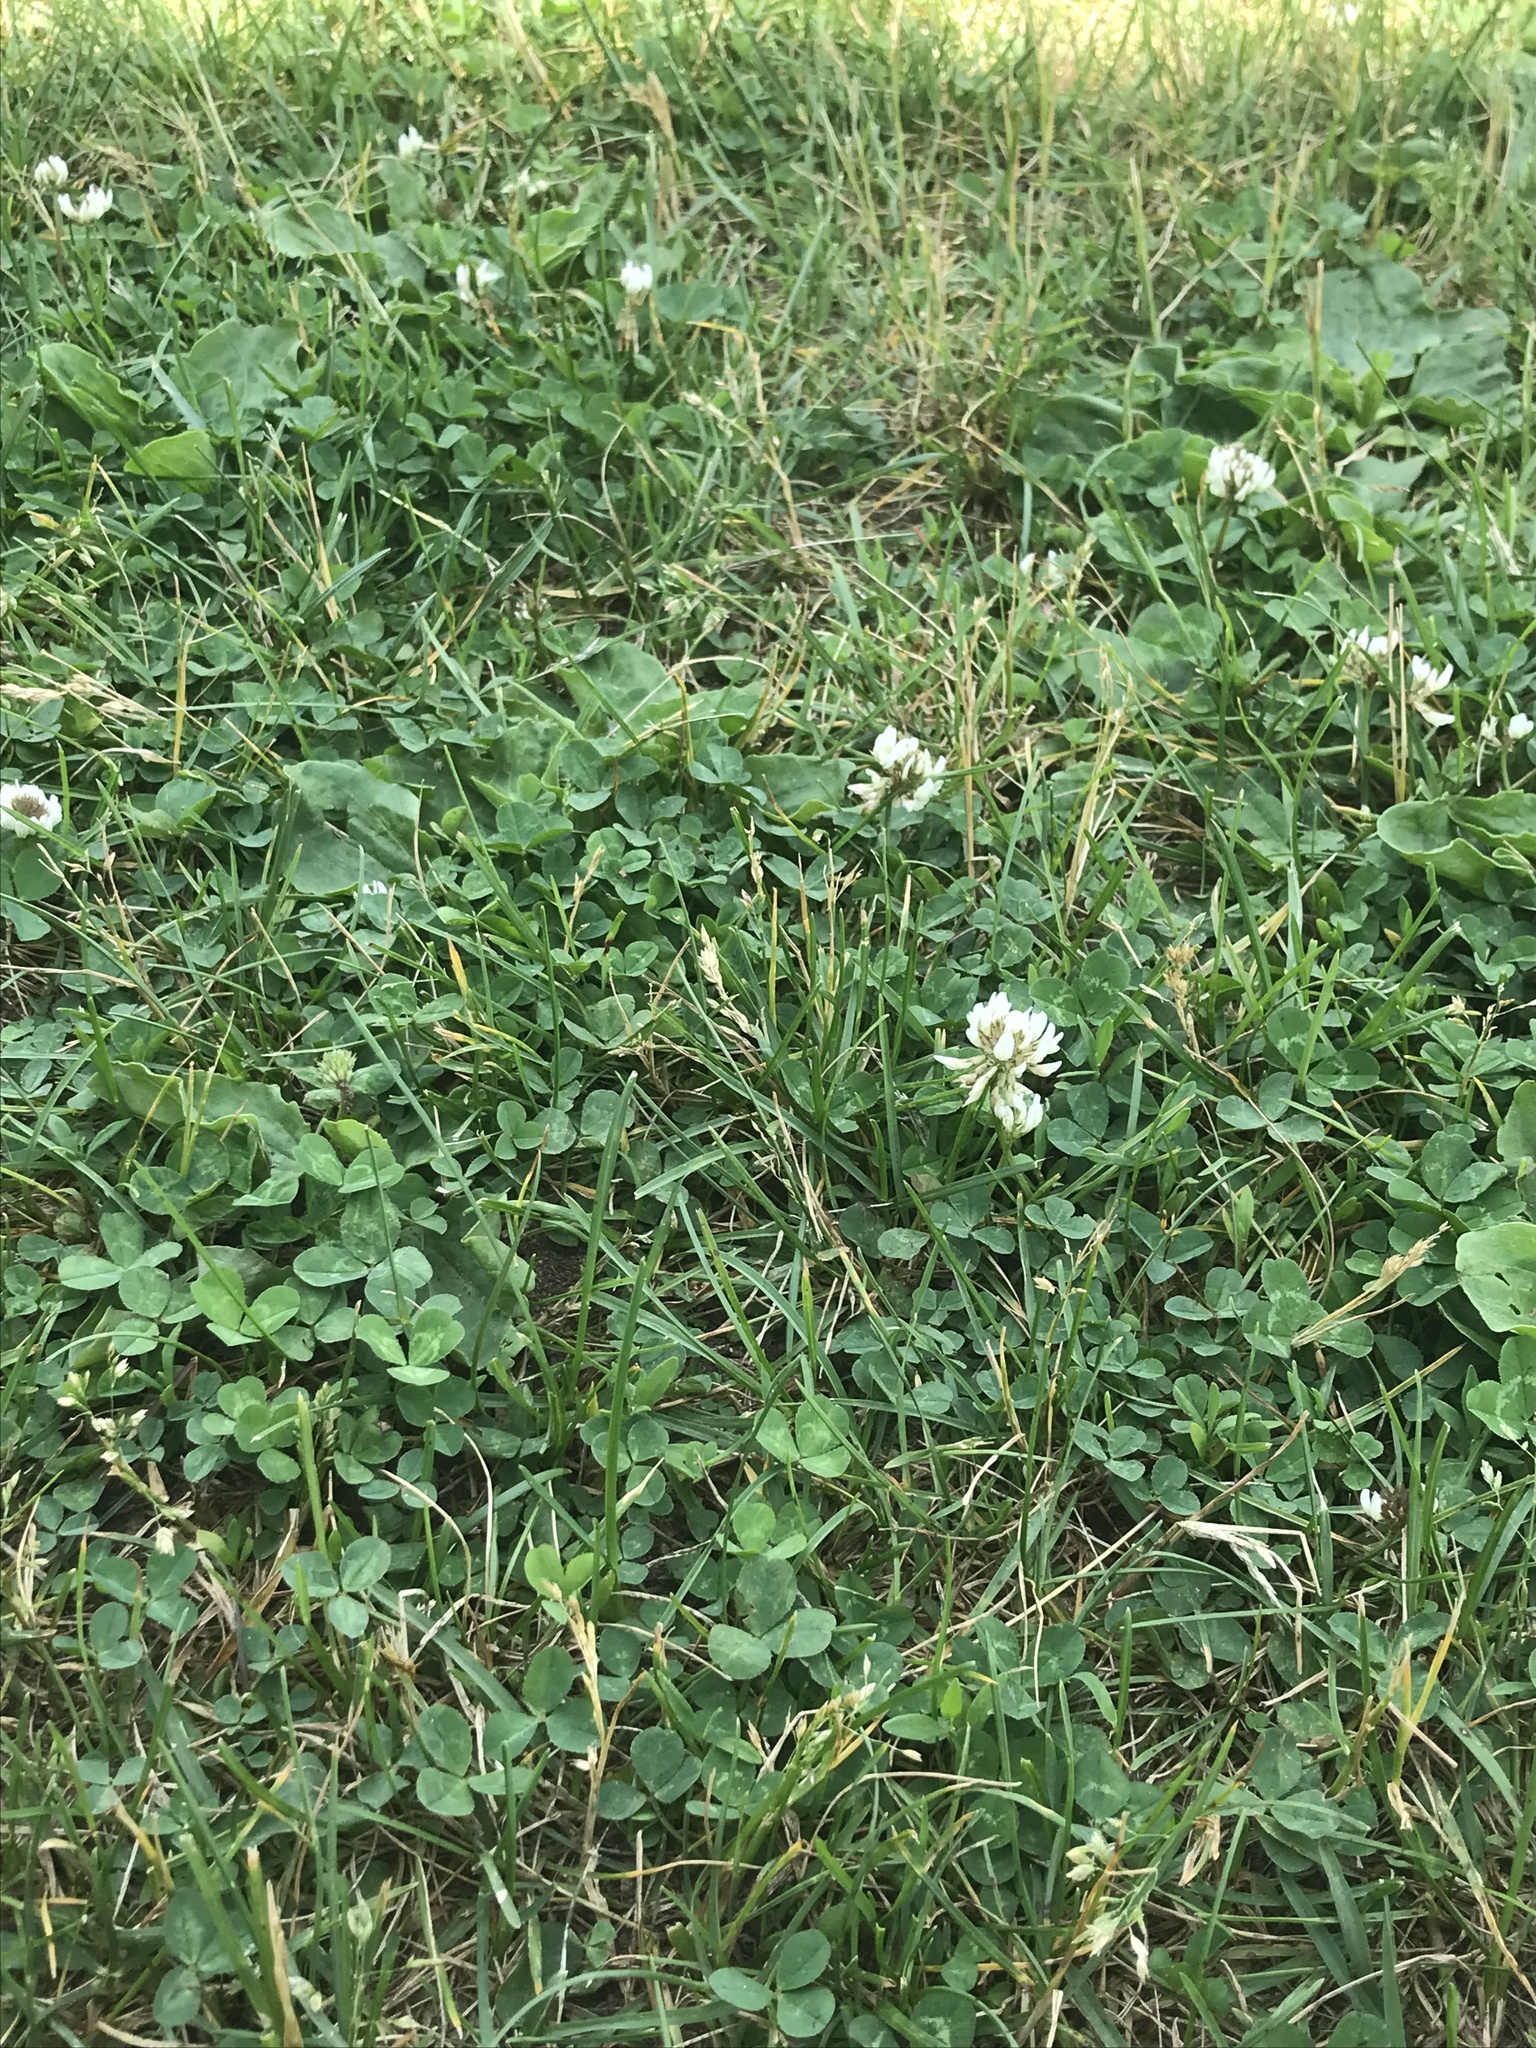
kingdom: Plantae
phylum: Tracheophyta
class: Magnoliopsida
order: Fabales
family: Fabaceae
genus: Trifolium
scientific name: Trifolium repens
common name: White clover
